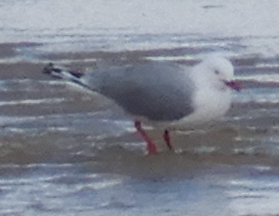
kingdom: Animalia
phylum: Chordata
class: Aves
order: Charadriiformes
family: Laridae
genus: Chroicocephalus
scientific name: Chroicocephalus novaehollandiae
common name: Silver gull
